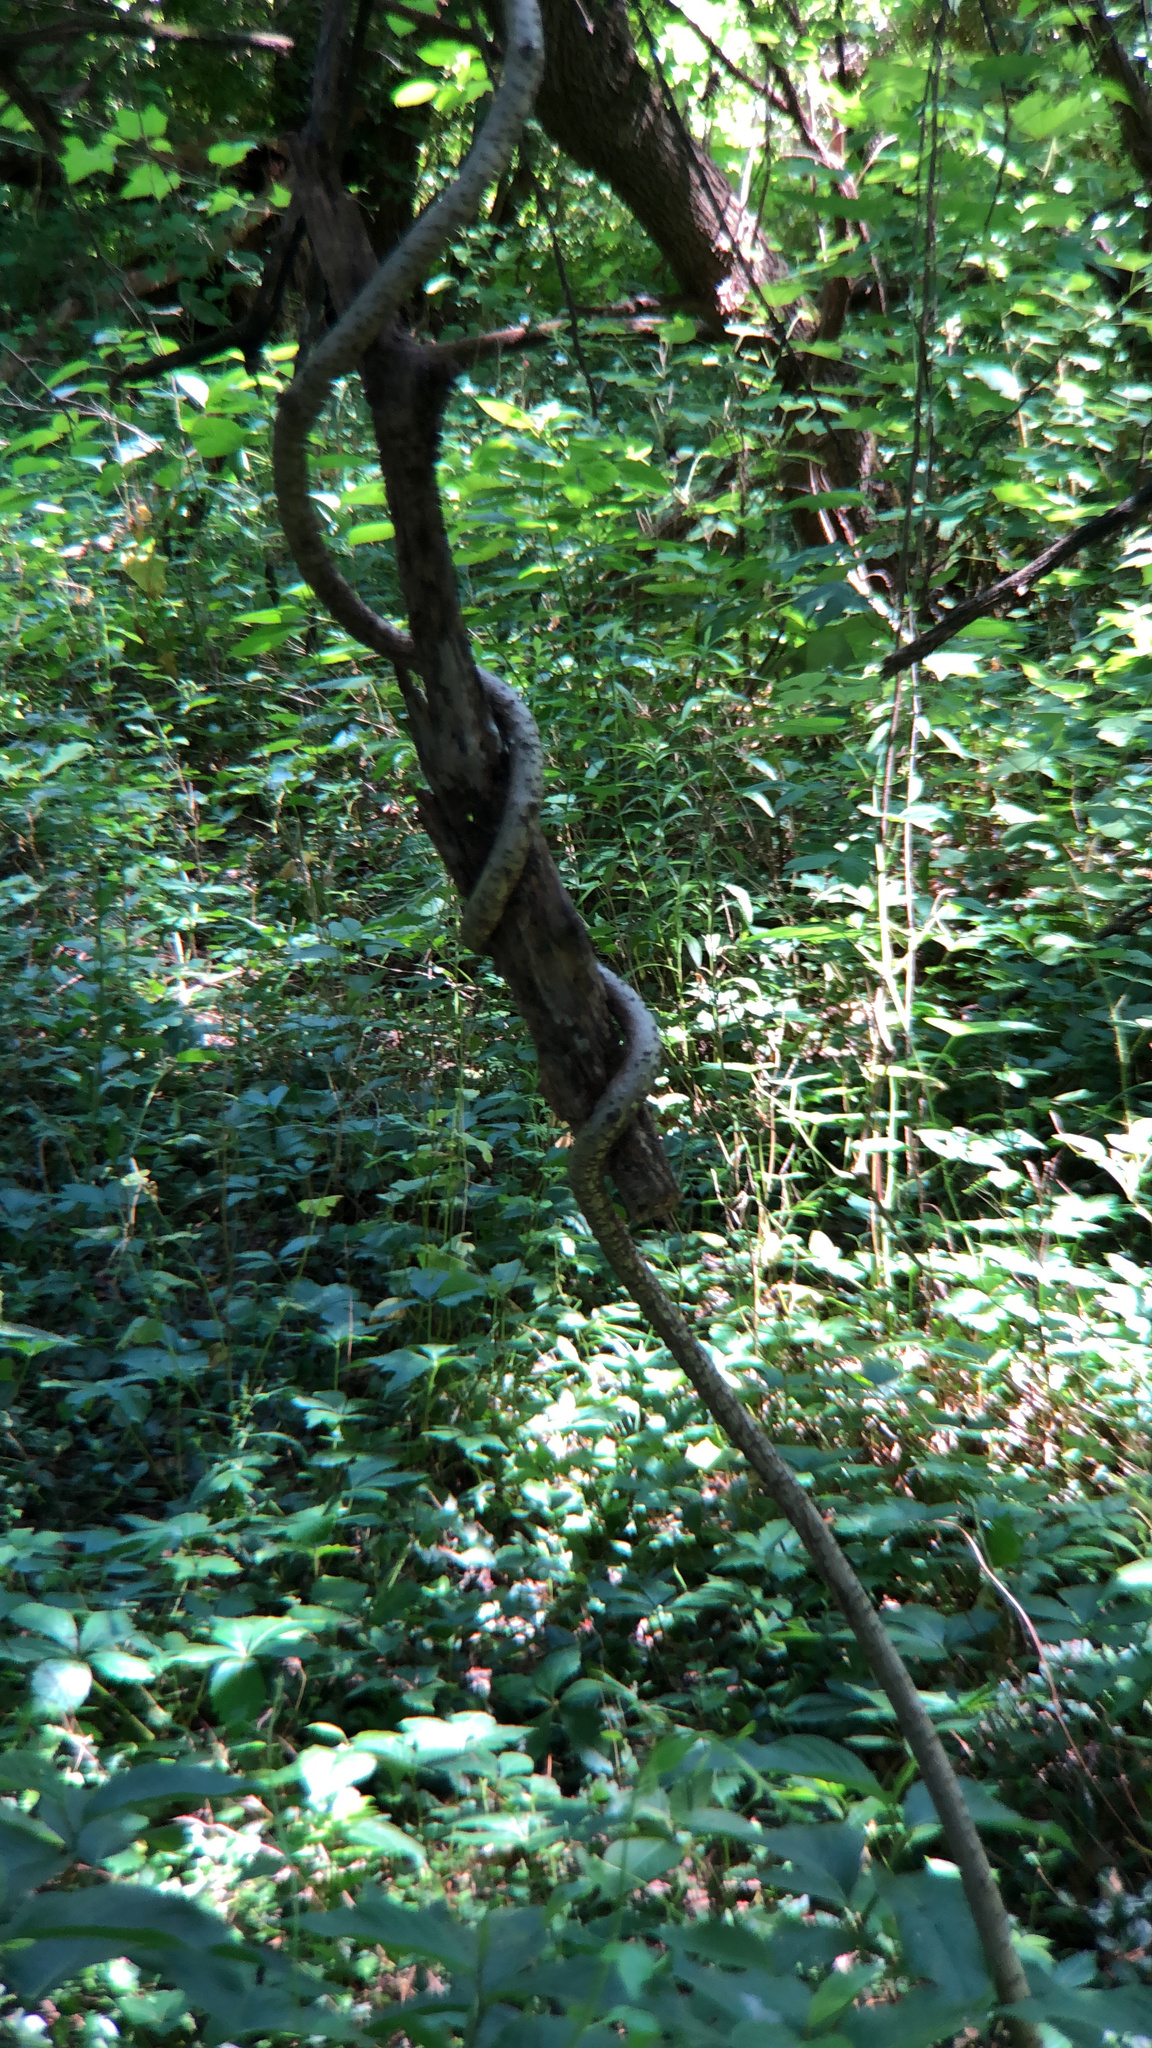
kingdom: Plantae
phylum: Tracheophyta
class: Magnoliopsida
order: Celastrales
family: Celastraceae
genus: Celastrus
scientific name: Celastrus orbiculatus
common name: Oriental bittersweet
